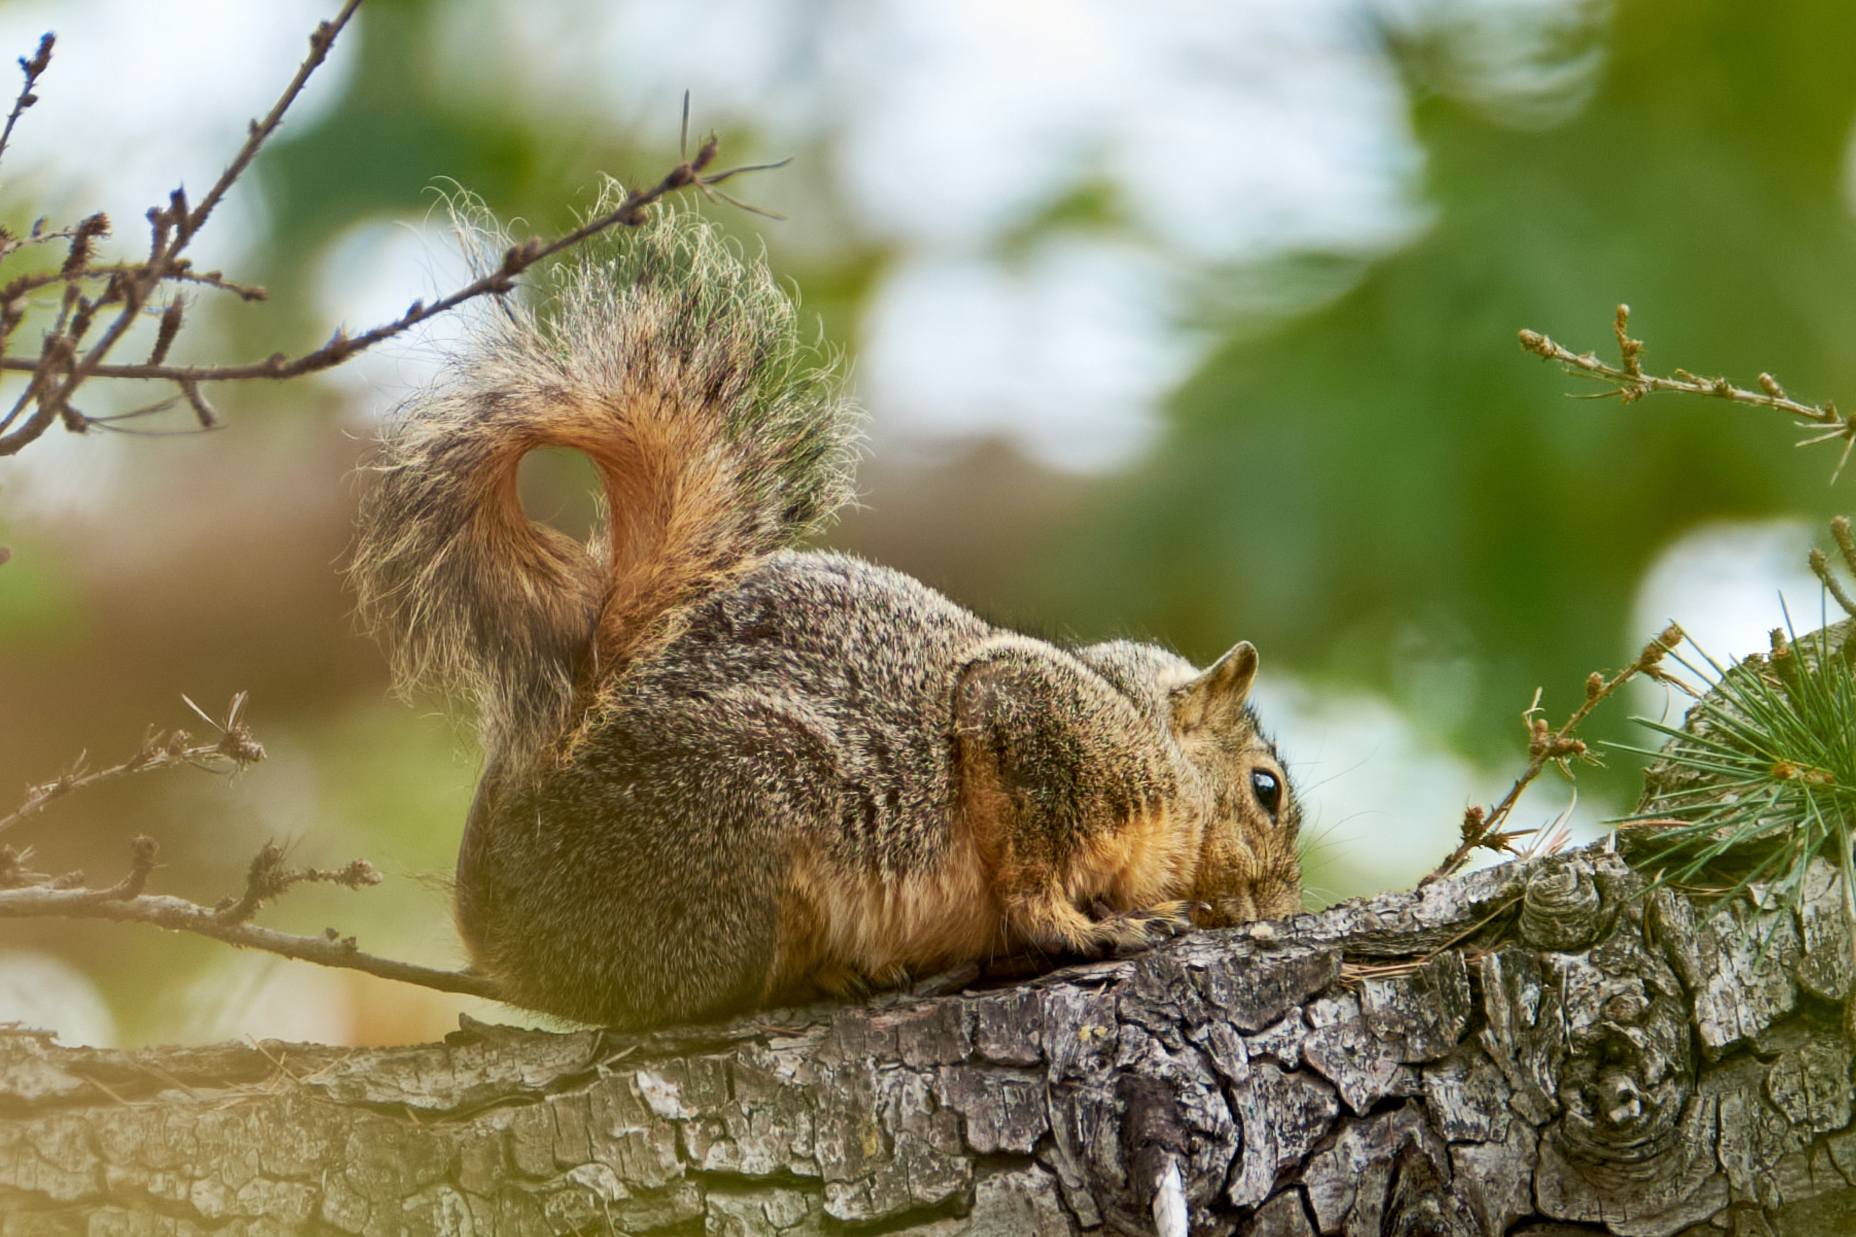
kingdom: Animalia
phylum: Chordata
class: Mammalia
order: Rodentia
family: Sciuridae
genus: Sciurus
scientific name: Sciurus niger
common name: Fox squirrel
